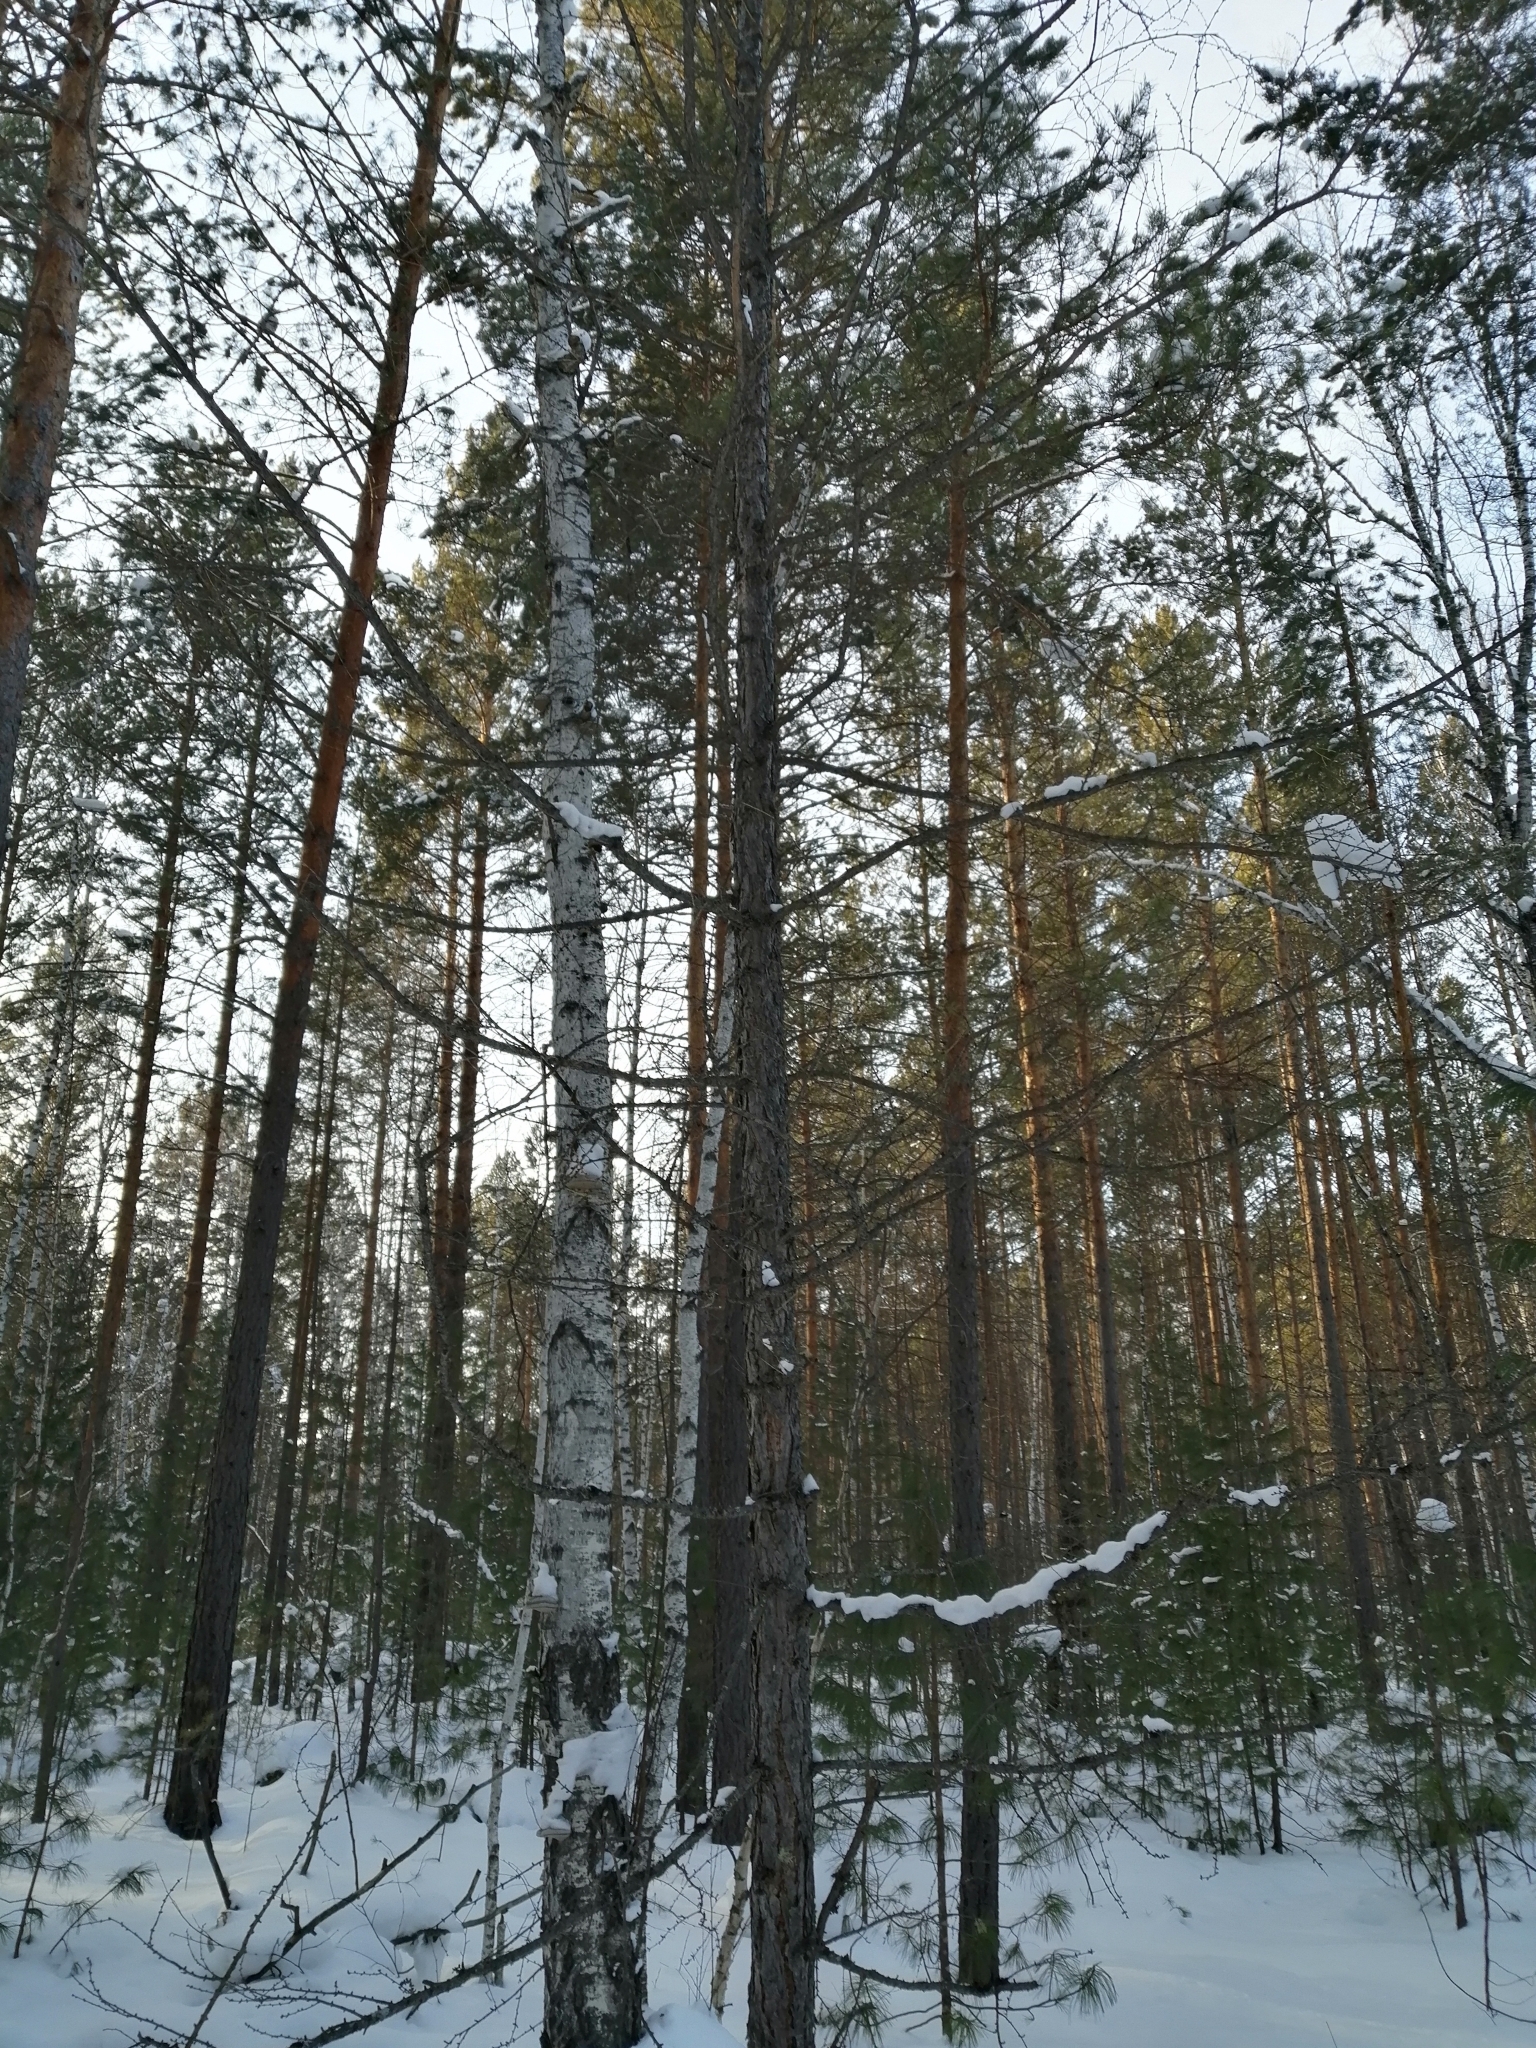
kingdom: Plantae
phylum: Tracheophyta
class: Pinopsida
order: Pinales
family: Pinaceae
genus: Larix
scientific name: Larix sibirica
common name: Siberian larch
